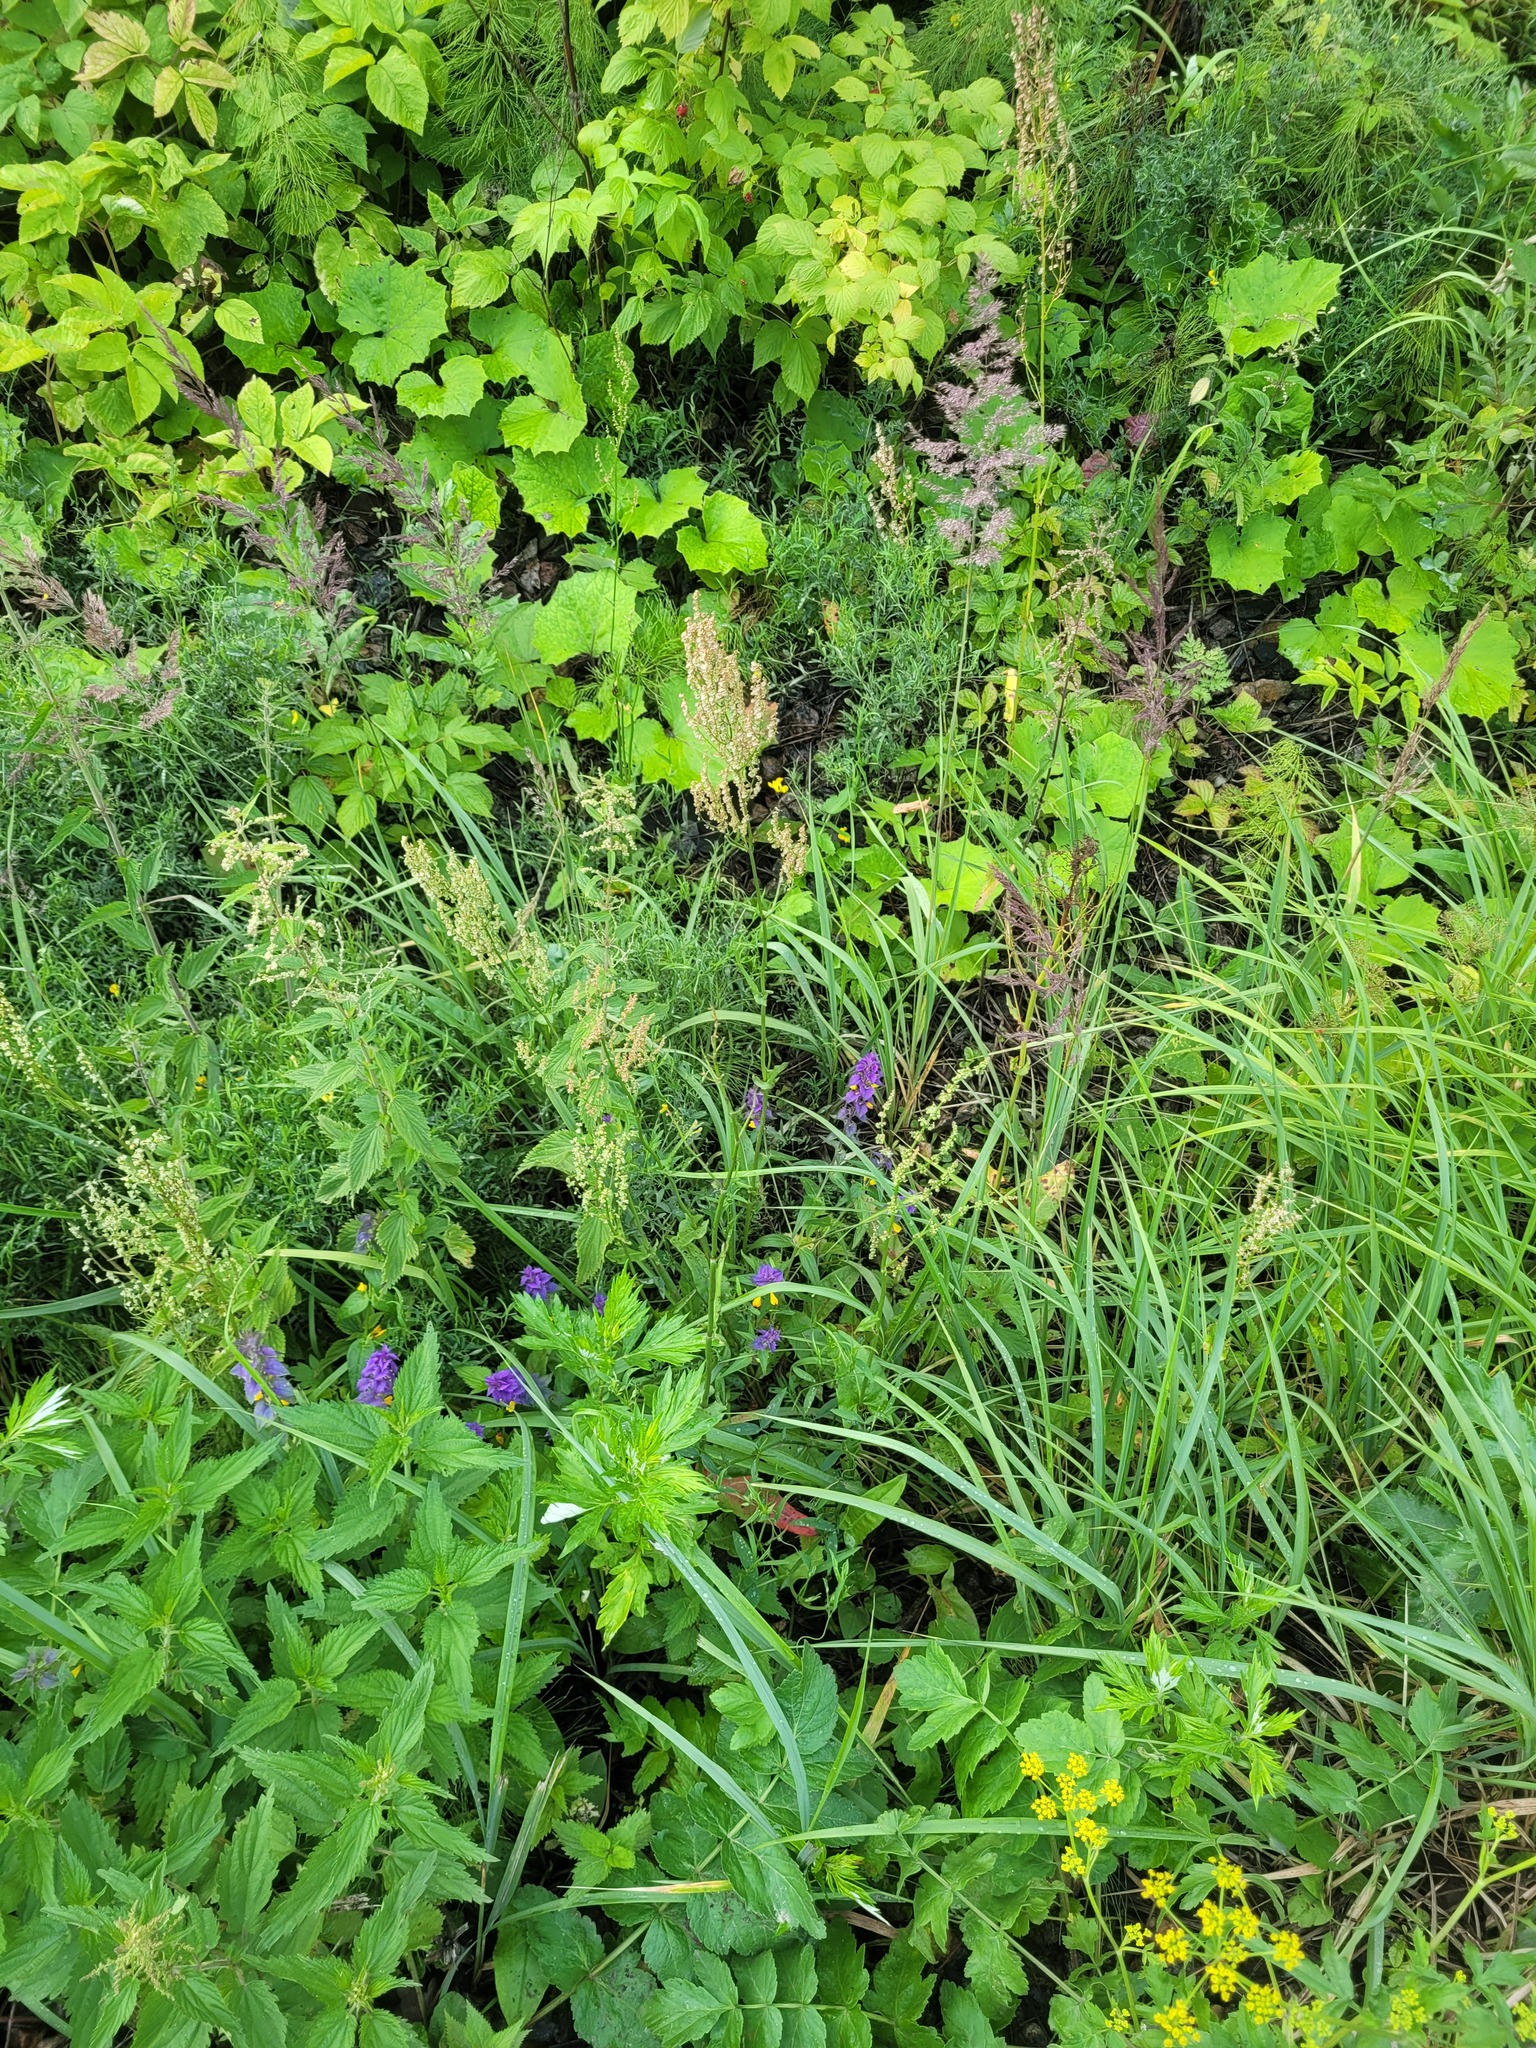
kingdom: Plantae
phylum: Tracheophyta
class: Magnoliopsida
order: Caryophyllales
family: Polygonaceae
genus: Rumex
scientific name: Rumex thyrsiflorus
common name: Garden sorrel
